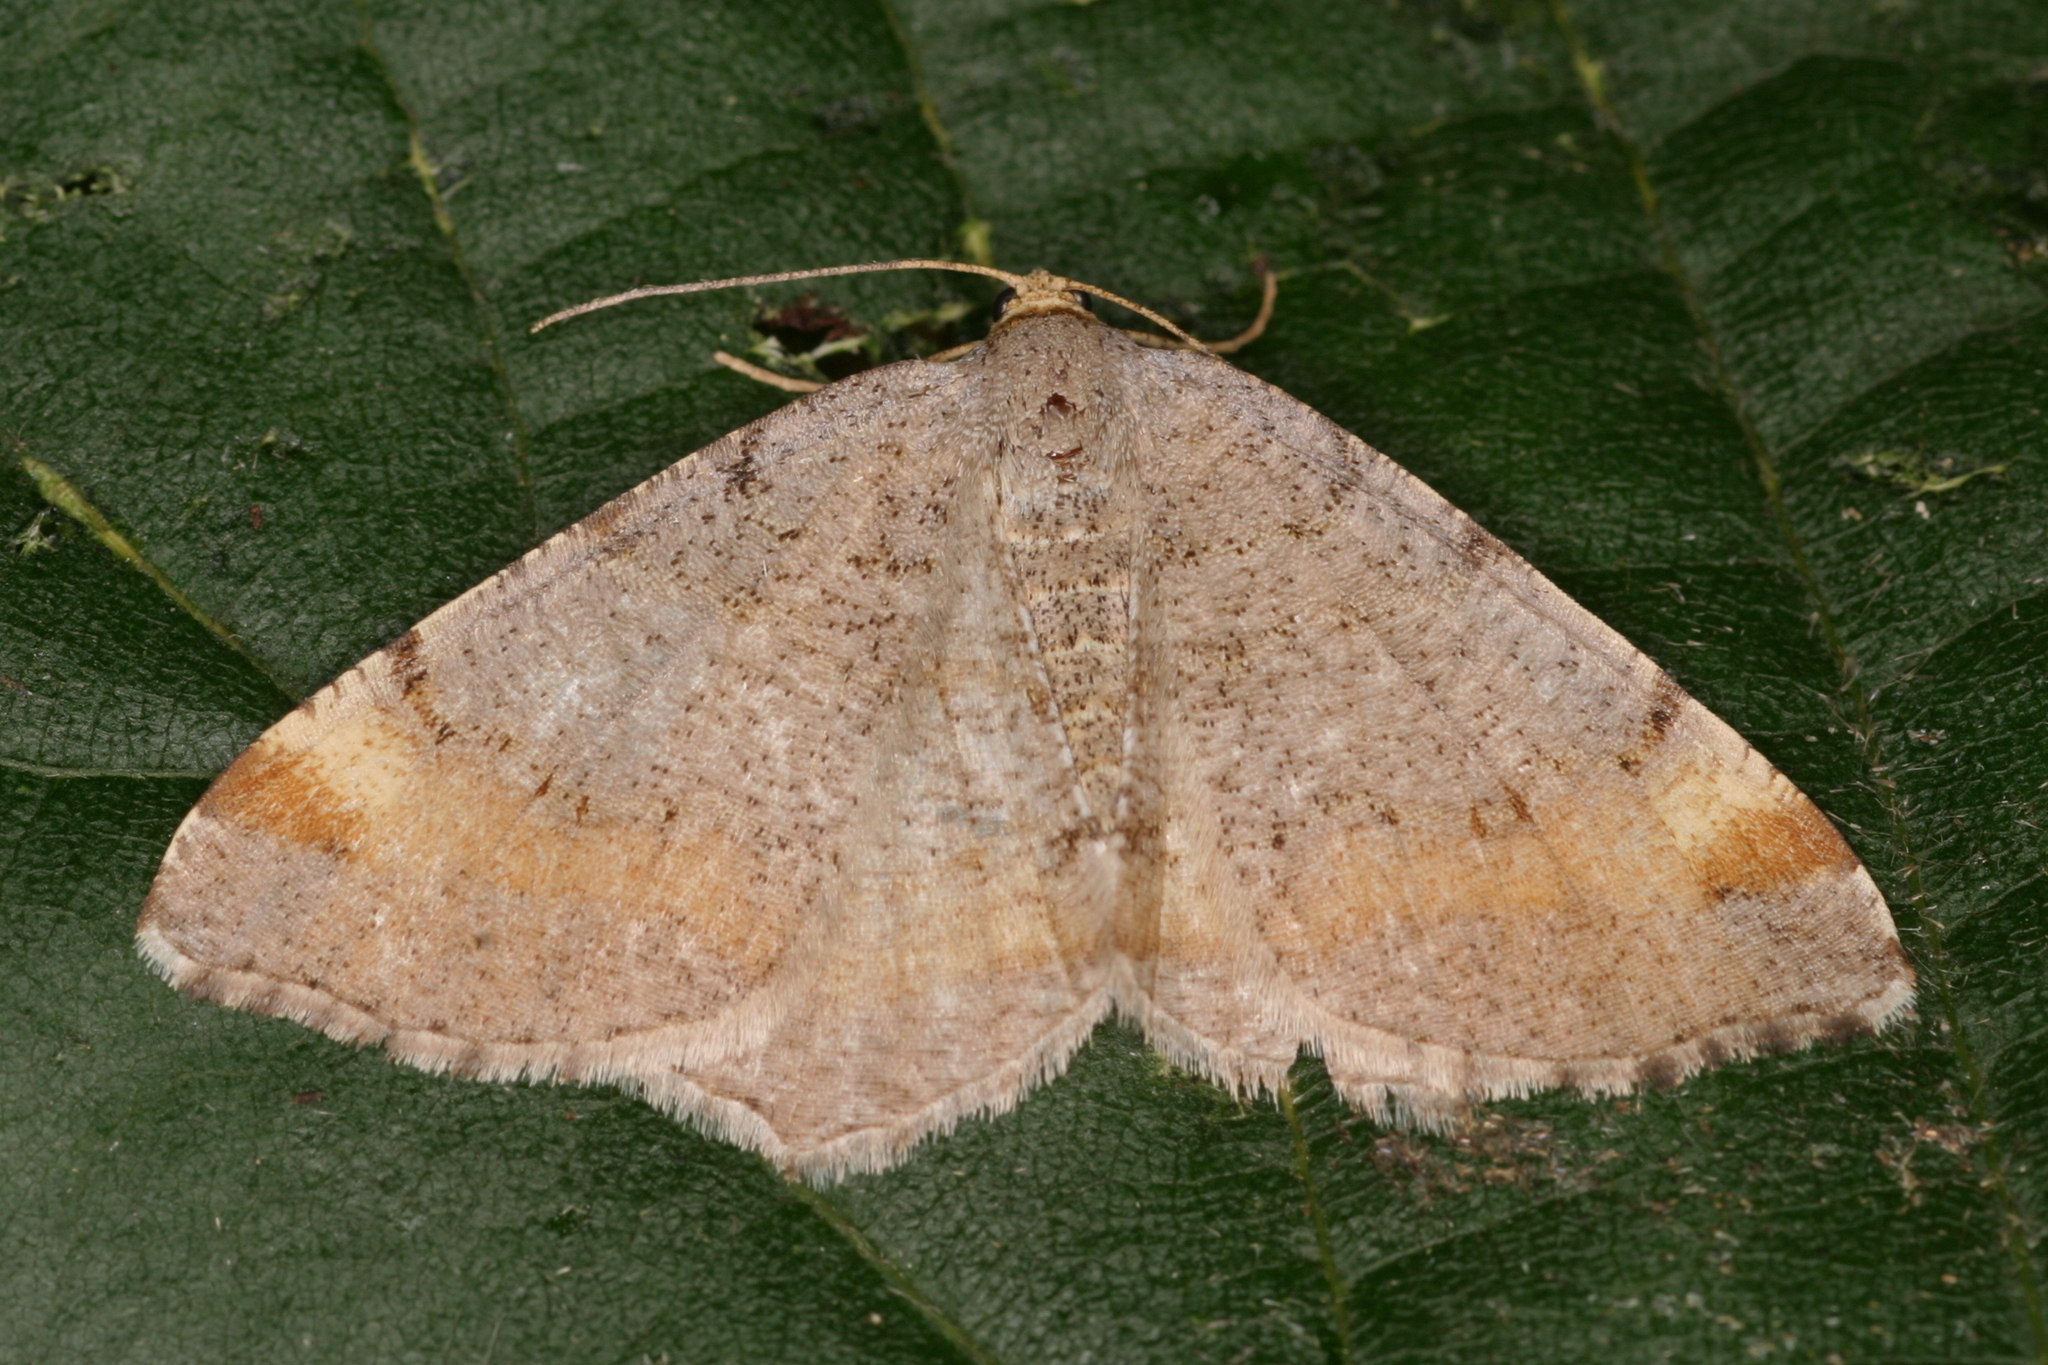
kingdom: Animalia
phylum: Arthropoda
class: Insecta
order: Lepidoptera
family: Geometridae
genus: Macaria
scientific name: Macaria liturata
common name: Tawny-barred angle
